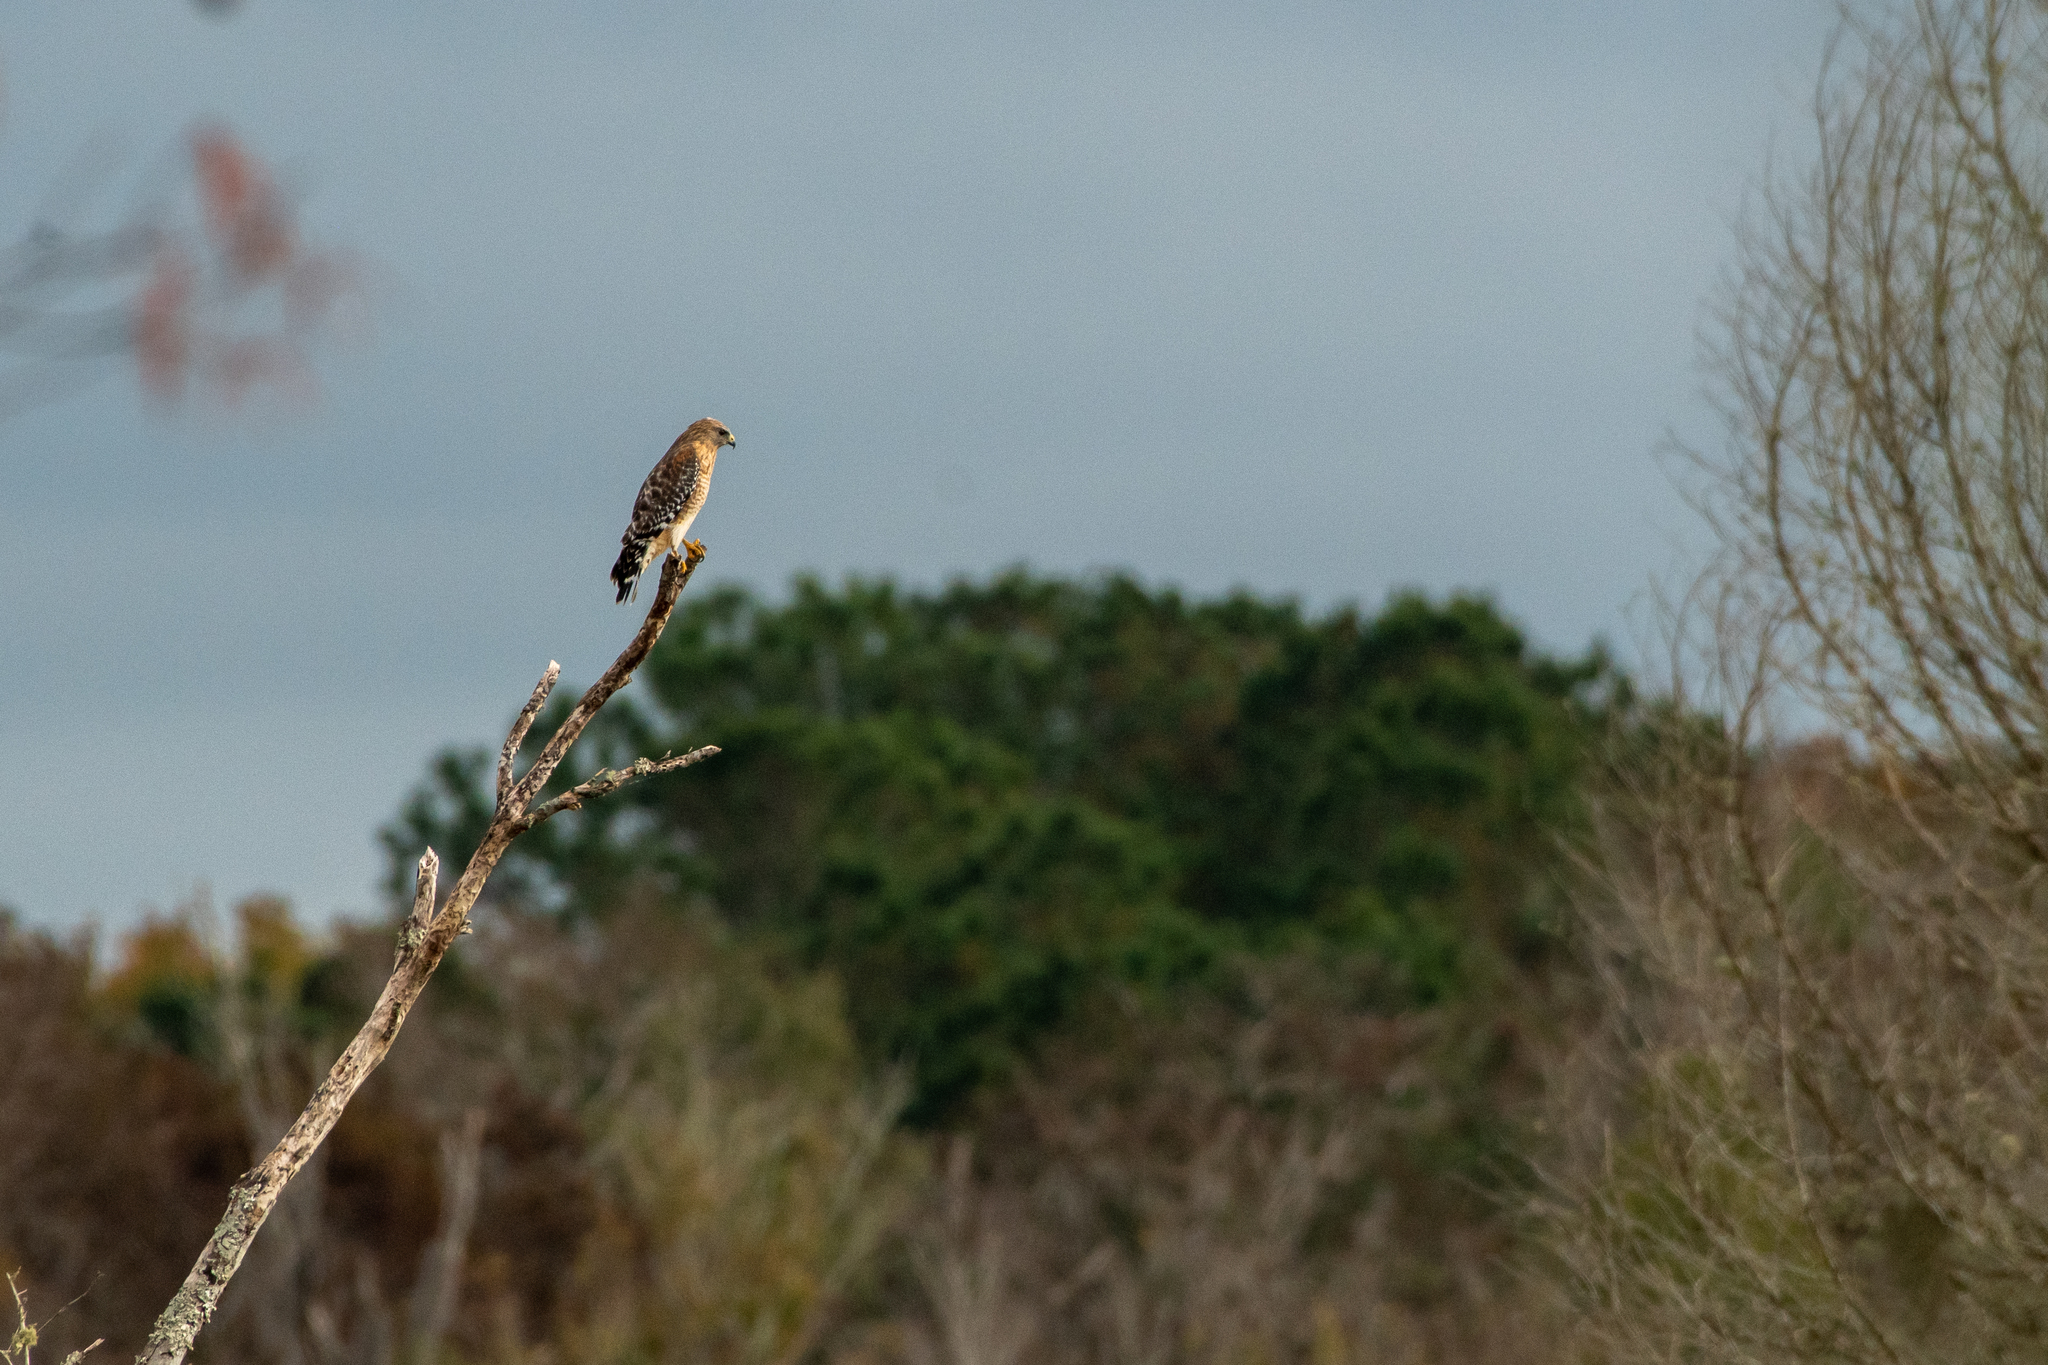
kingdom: Animalia
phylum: Chordata
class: Aves
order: Accipitriformes
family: Accipitridae
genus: Buteo
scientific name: Buteo lineatus
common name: Red-shouldered hawk
